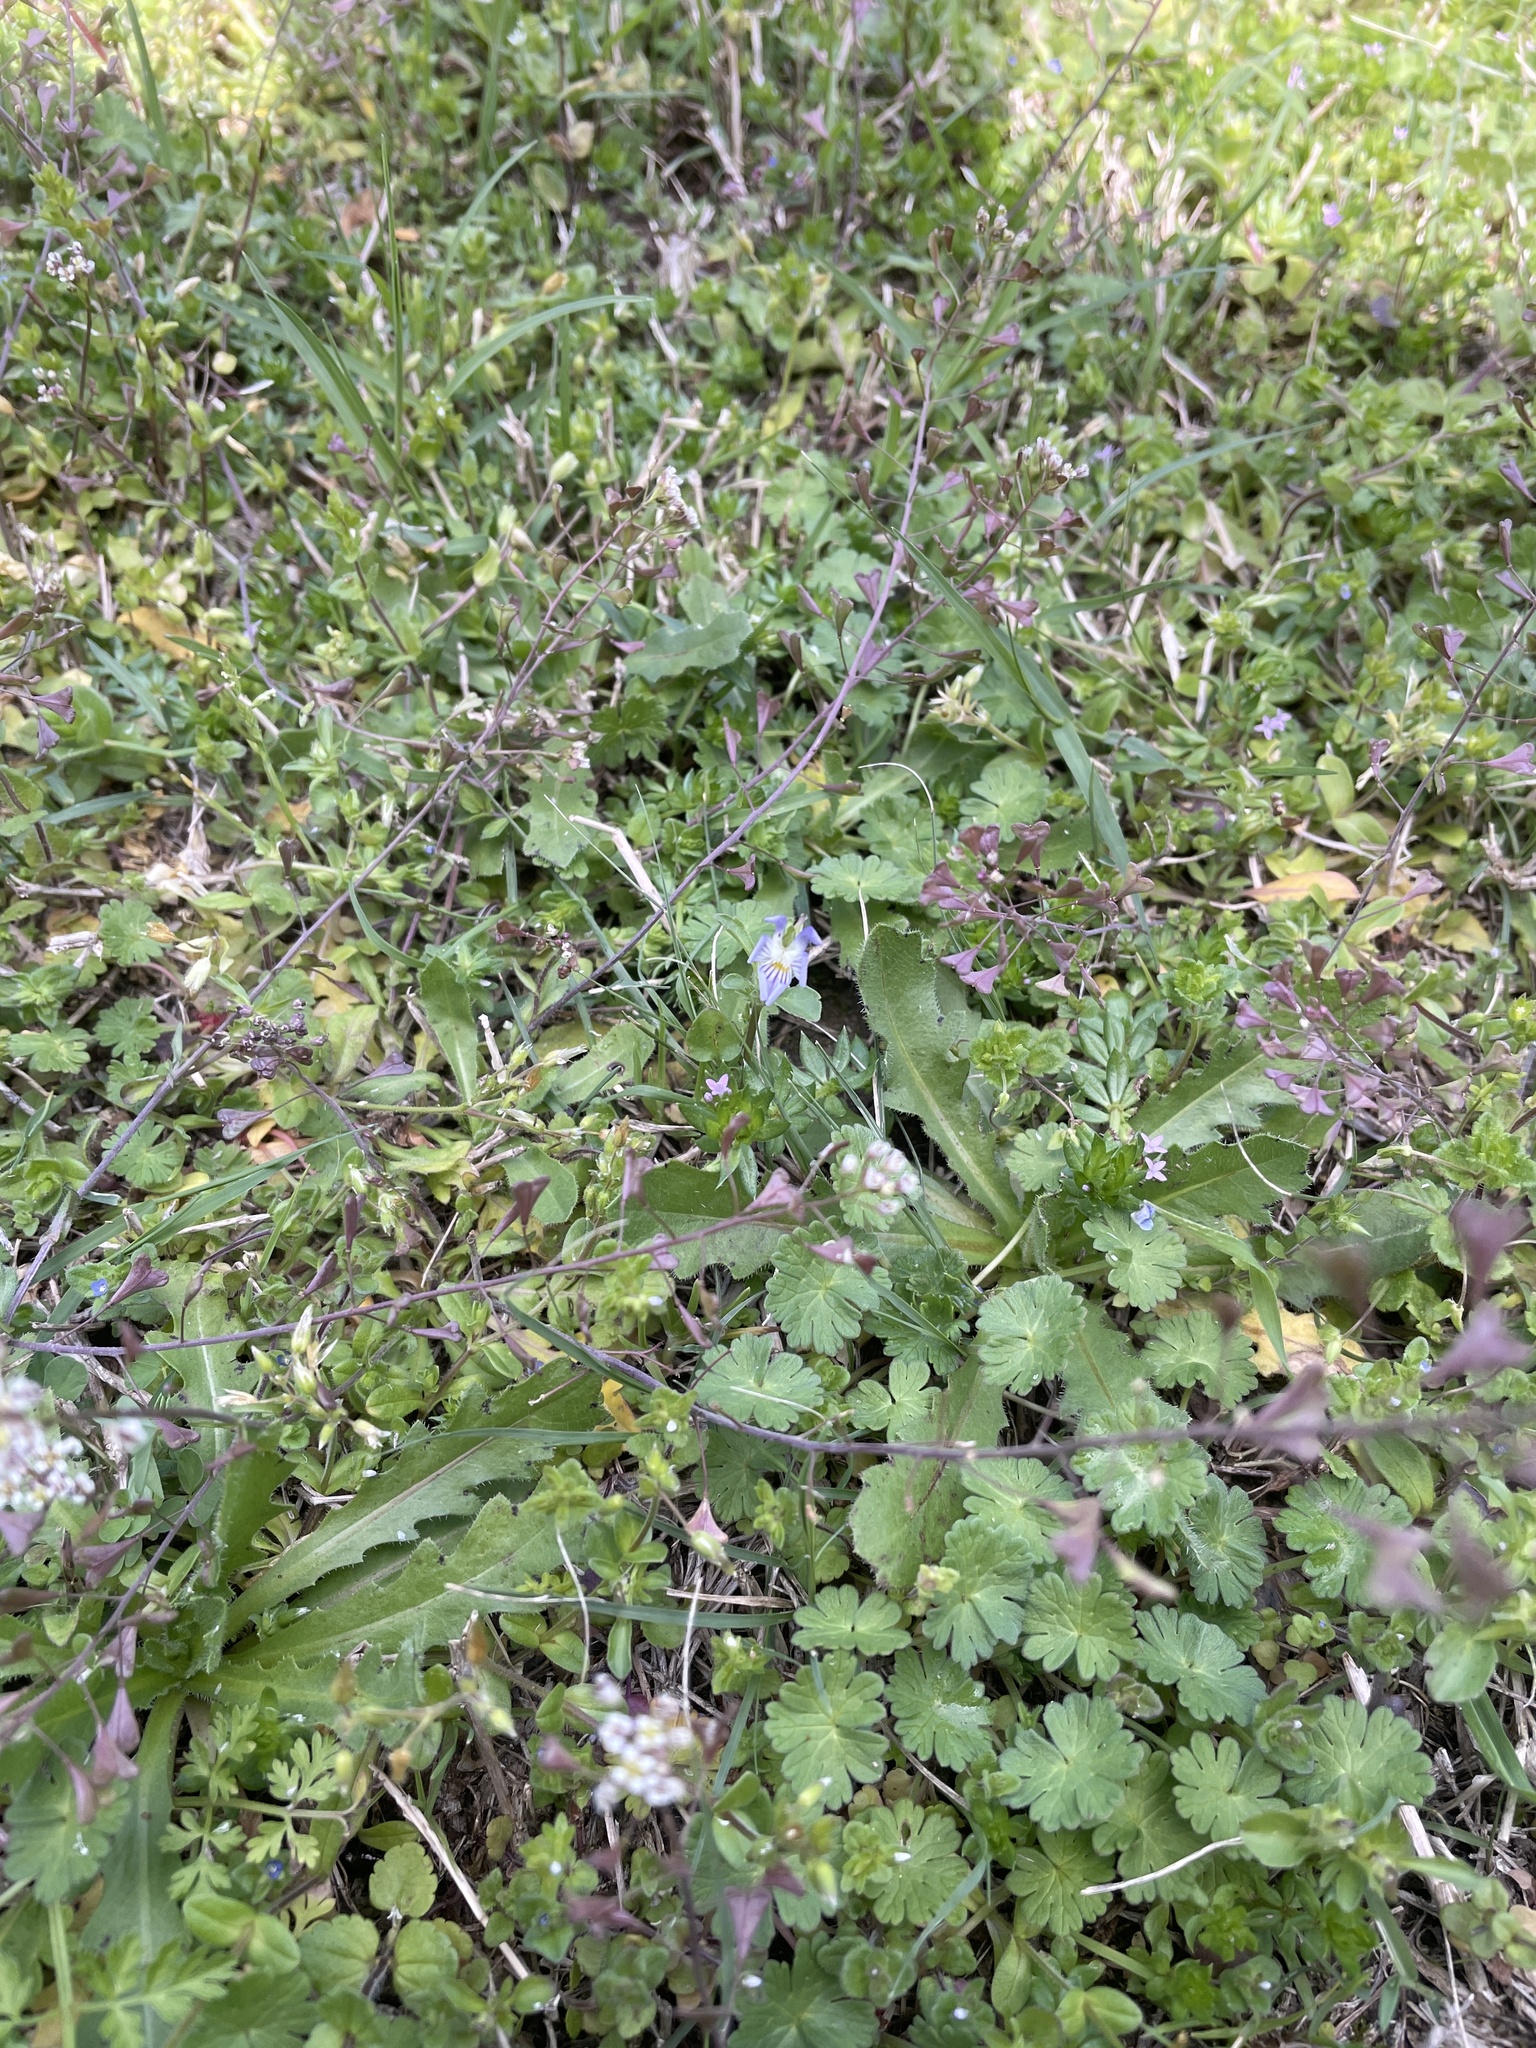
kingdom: Plantae
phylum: Tracheophyta
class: Magnoliopsida
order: Malpighiales
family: Violaceae
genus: Viola
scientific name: Viola rafinesquei
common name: American field pansy
